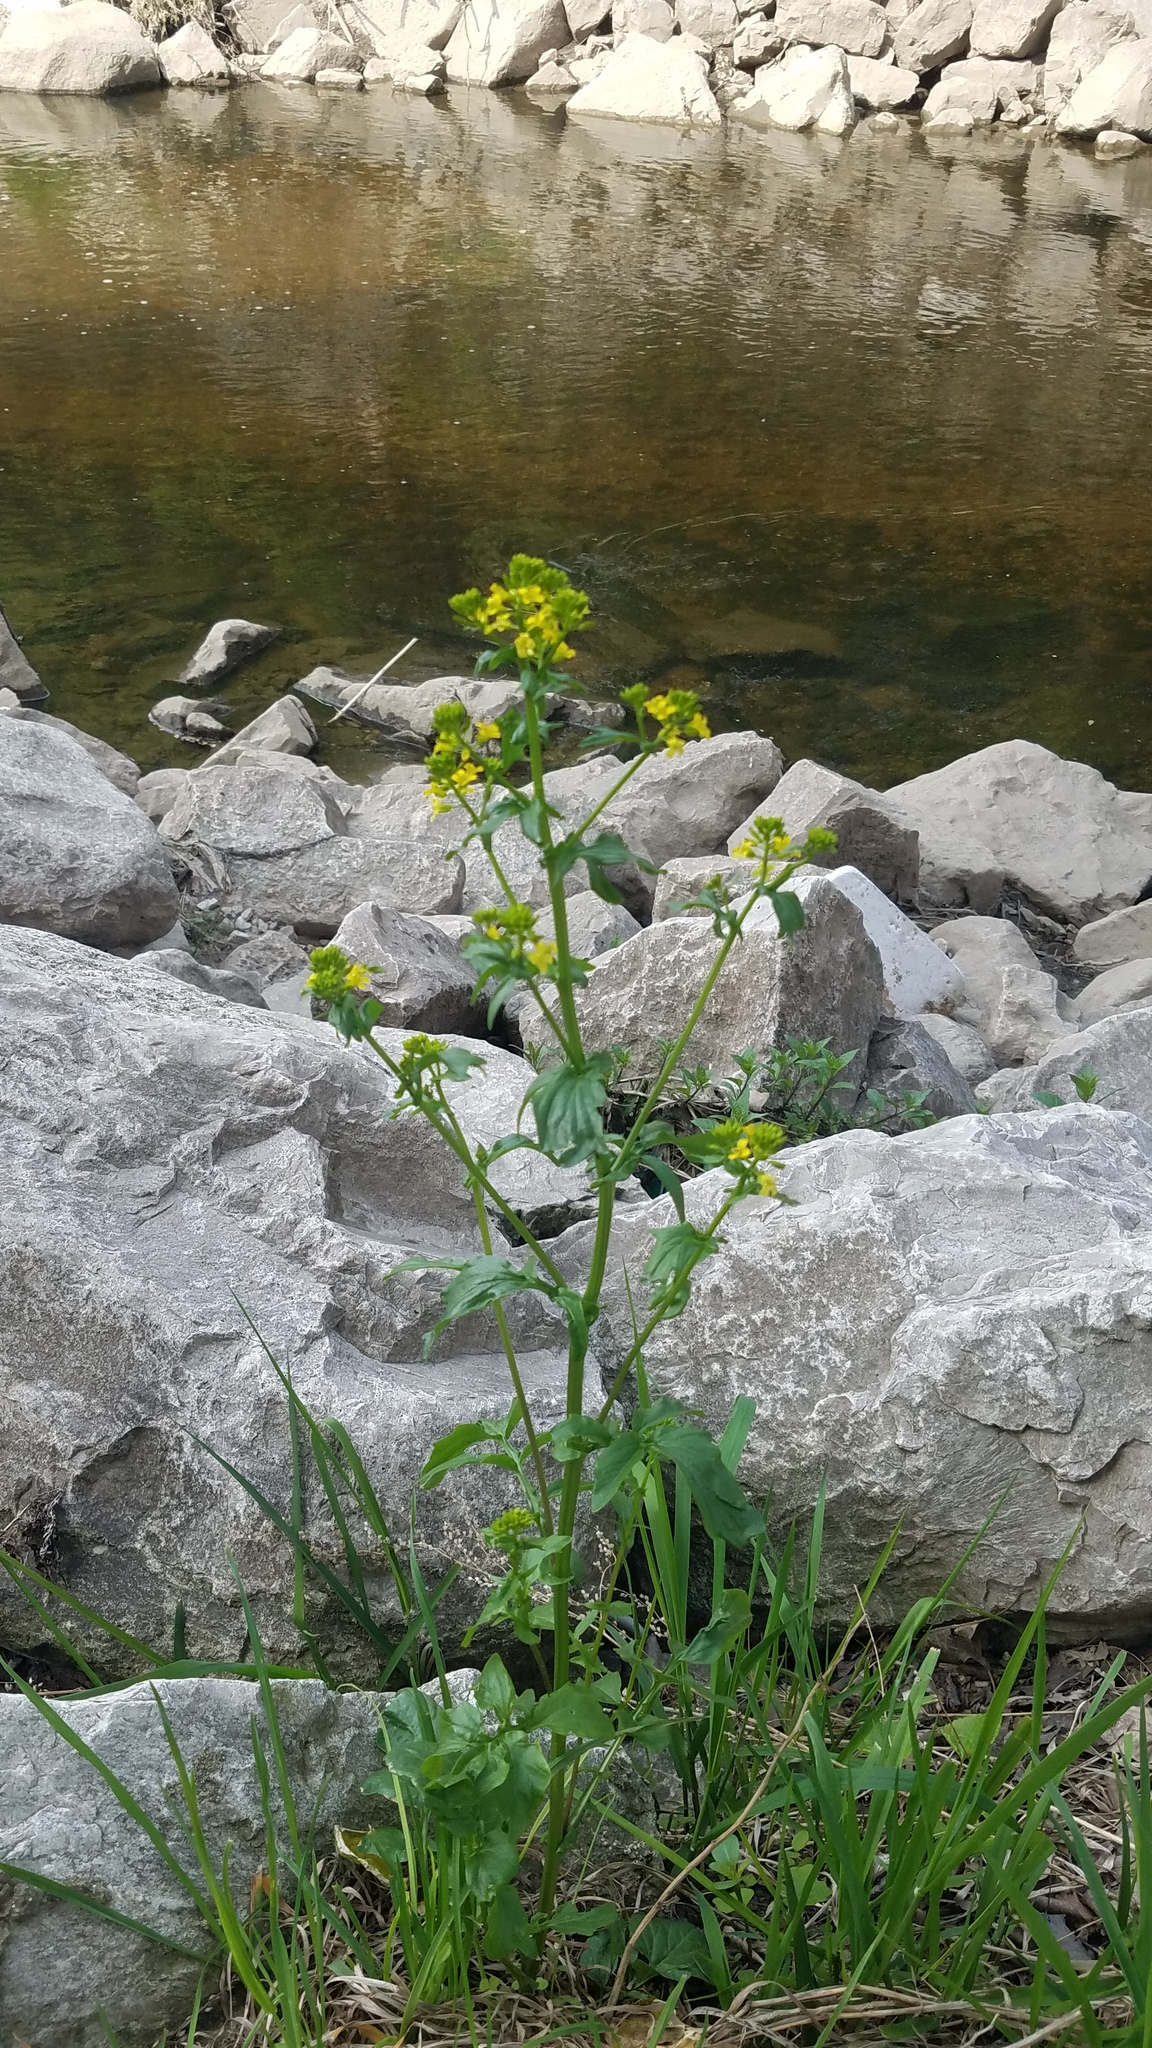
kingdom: Plantae
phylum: Tracheophyta
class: Magnoliopsida
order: Brassicales
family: Brassicaceae
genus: Barbarea
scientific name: Barbarea vulgaris
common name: Cressy-greens
